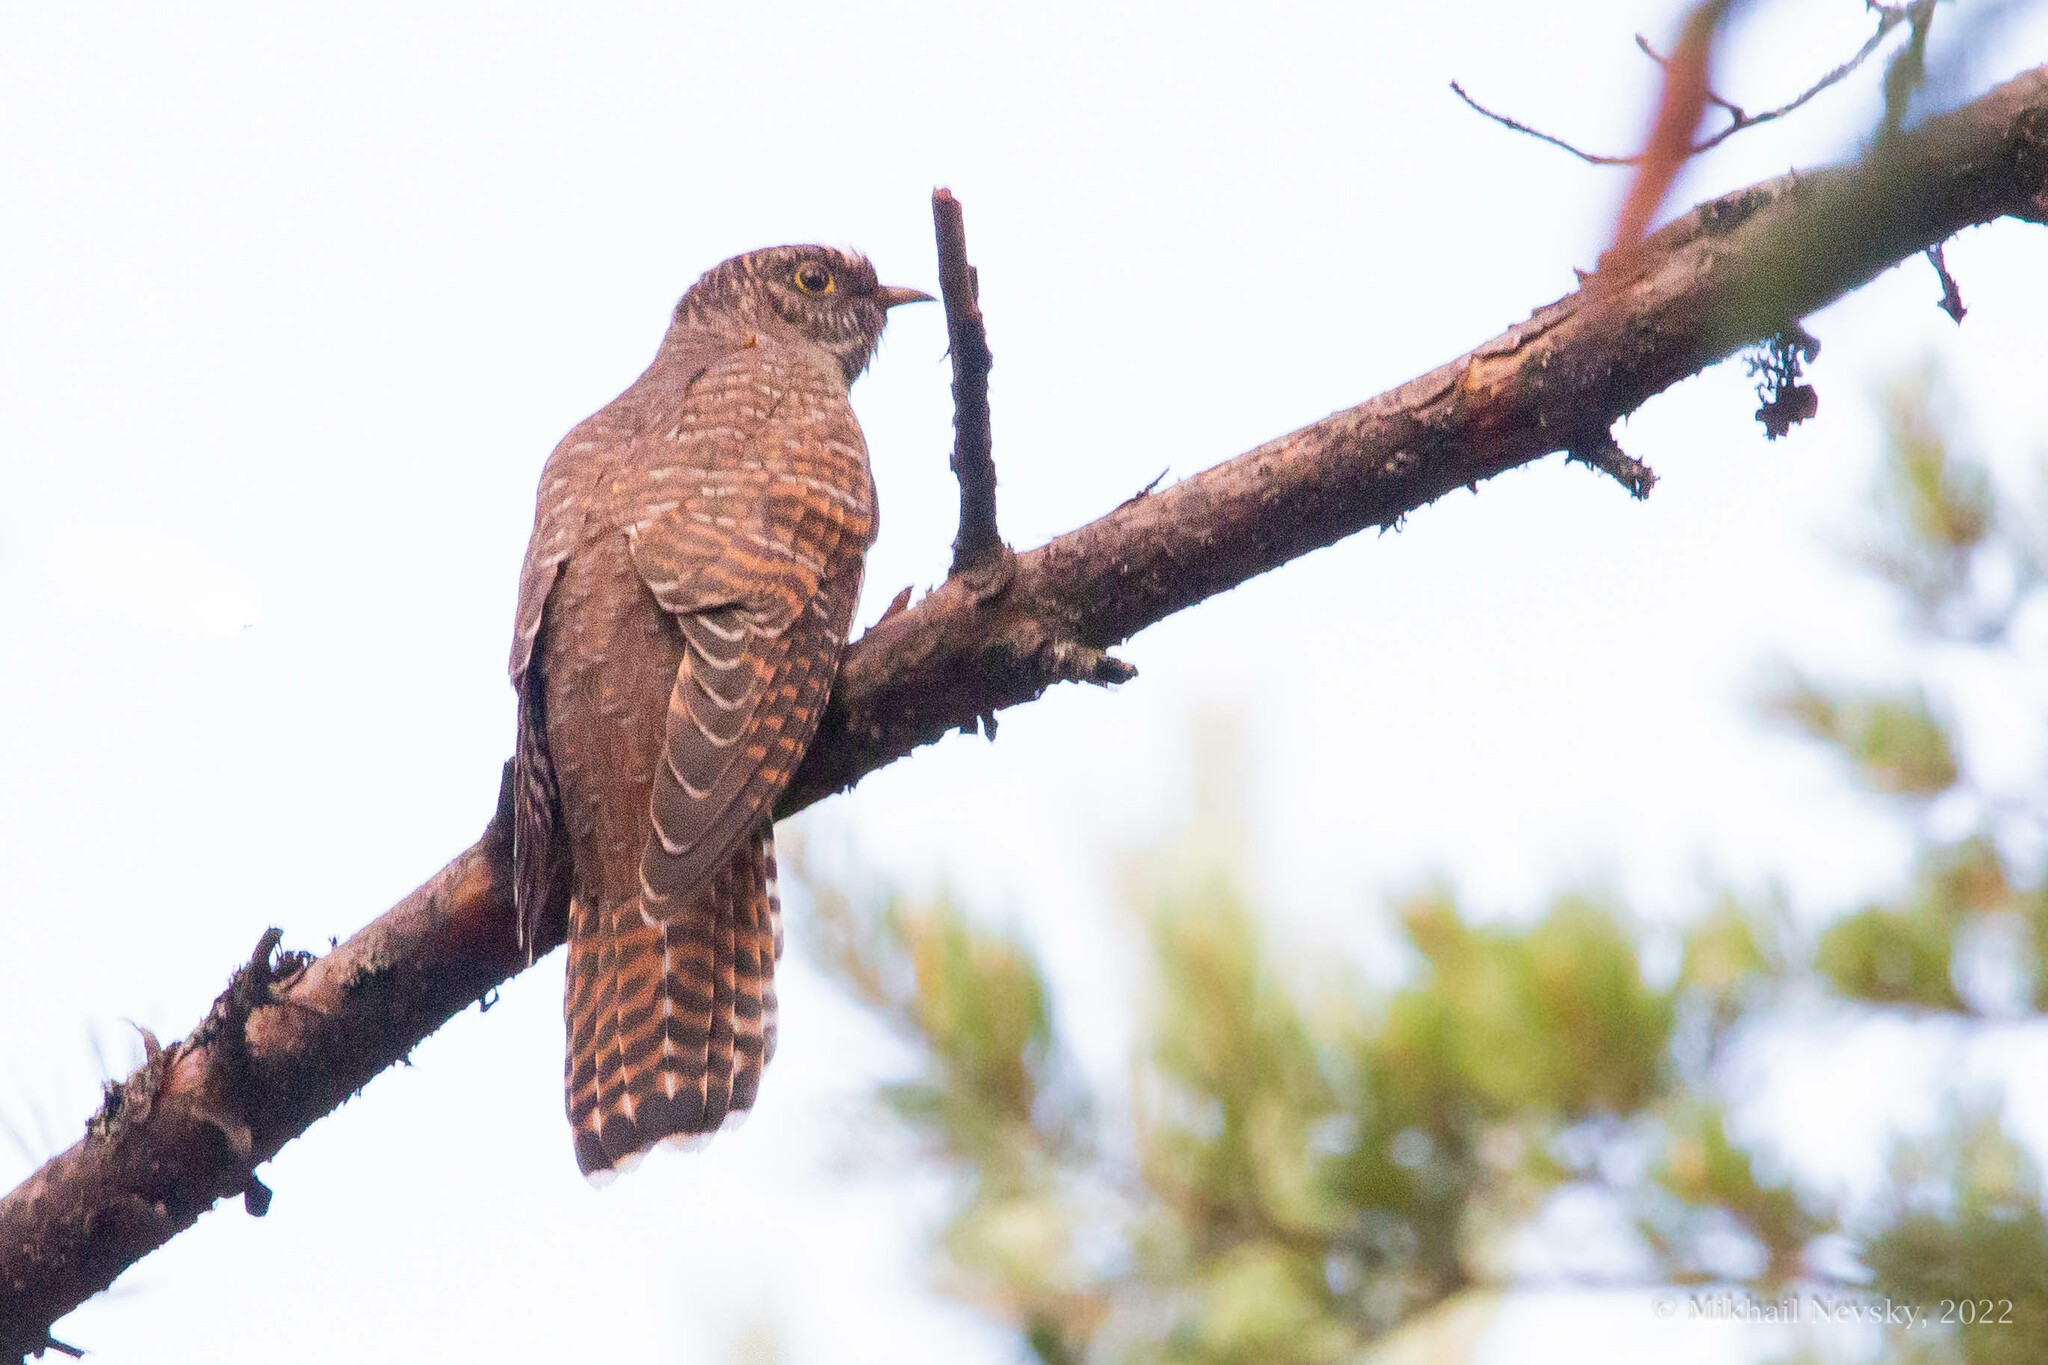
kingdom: Animalia
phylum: Chordata
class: Aves
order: Cuculiformes
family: Cuculidae
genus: Cuculus
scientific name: Cuculus canorus
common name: Common cuckoo
